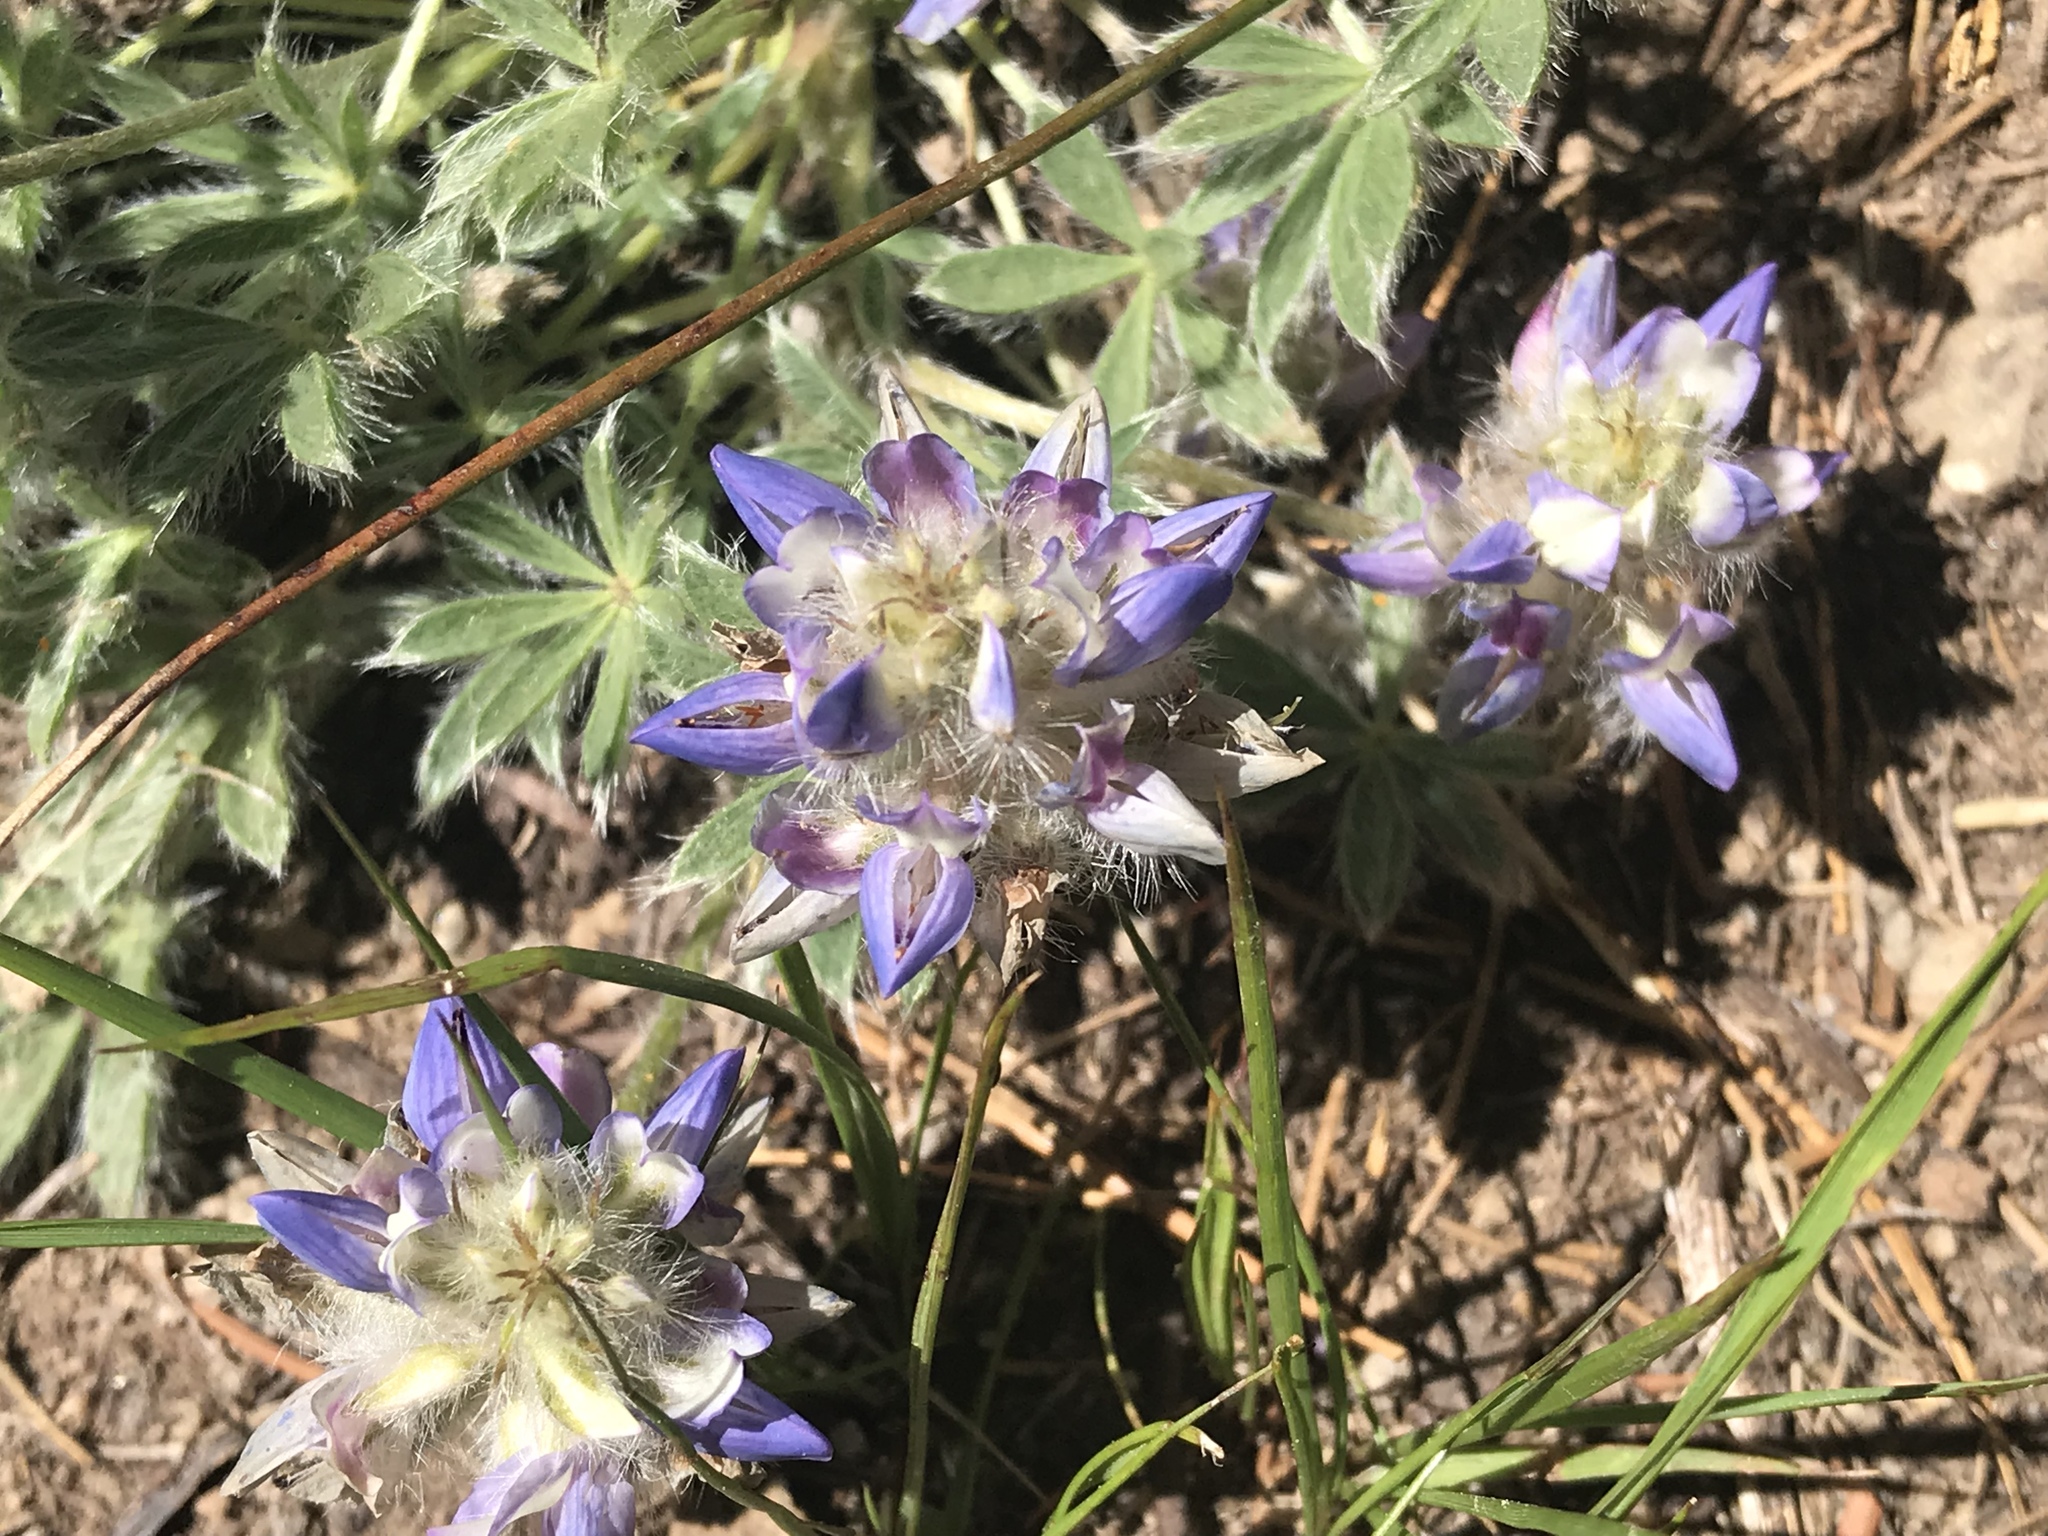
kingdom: Plantae
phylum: Tracheophyta
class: Magnoliopsida
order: Fabales
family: Fabaceae
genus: Lupinus
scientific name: Lupinus breweri
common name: Brewer's lupine
